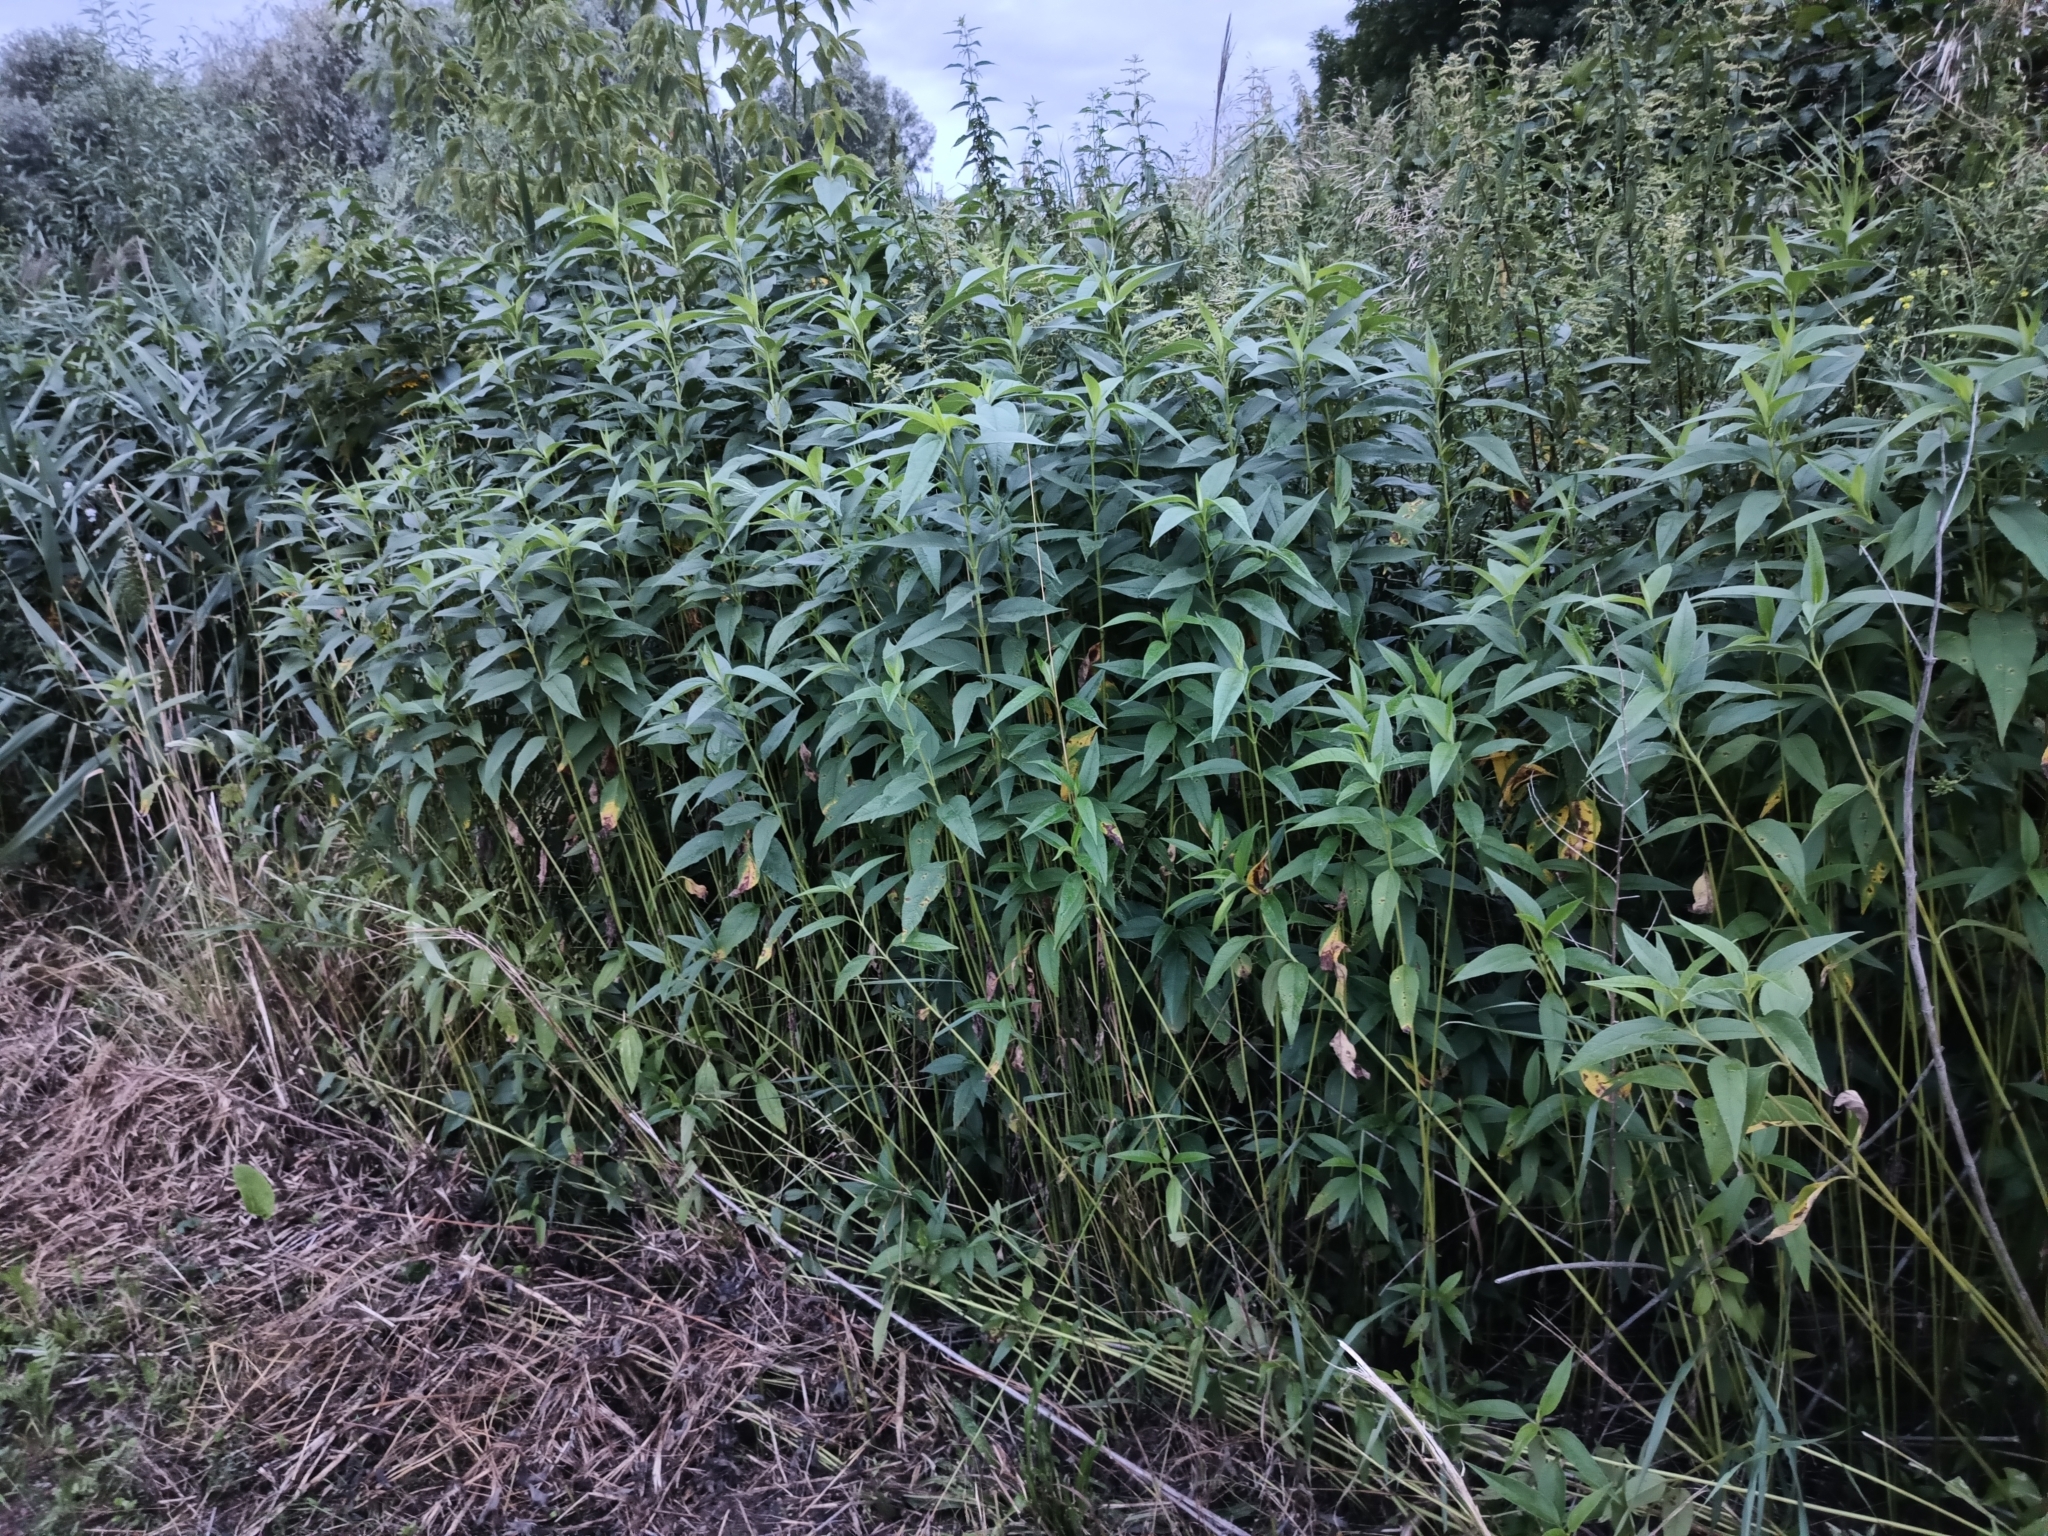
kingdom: Plantae
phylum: Tracheophyta
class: Magnoliopsida
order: Asterales
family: Asteraceae
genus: Helianthus
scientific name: Helianthus tuberosus
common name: Jerusalem artichoke
